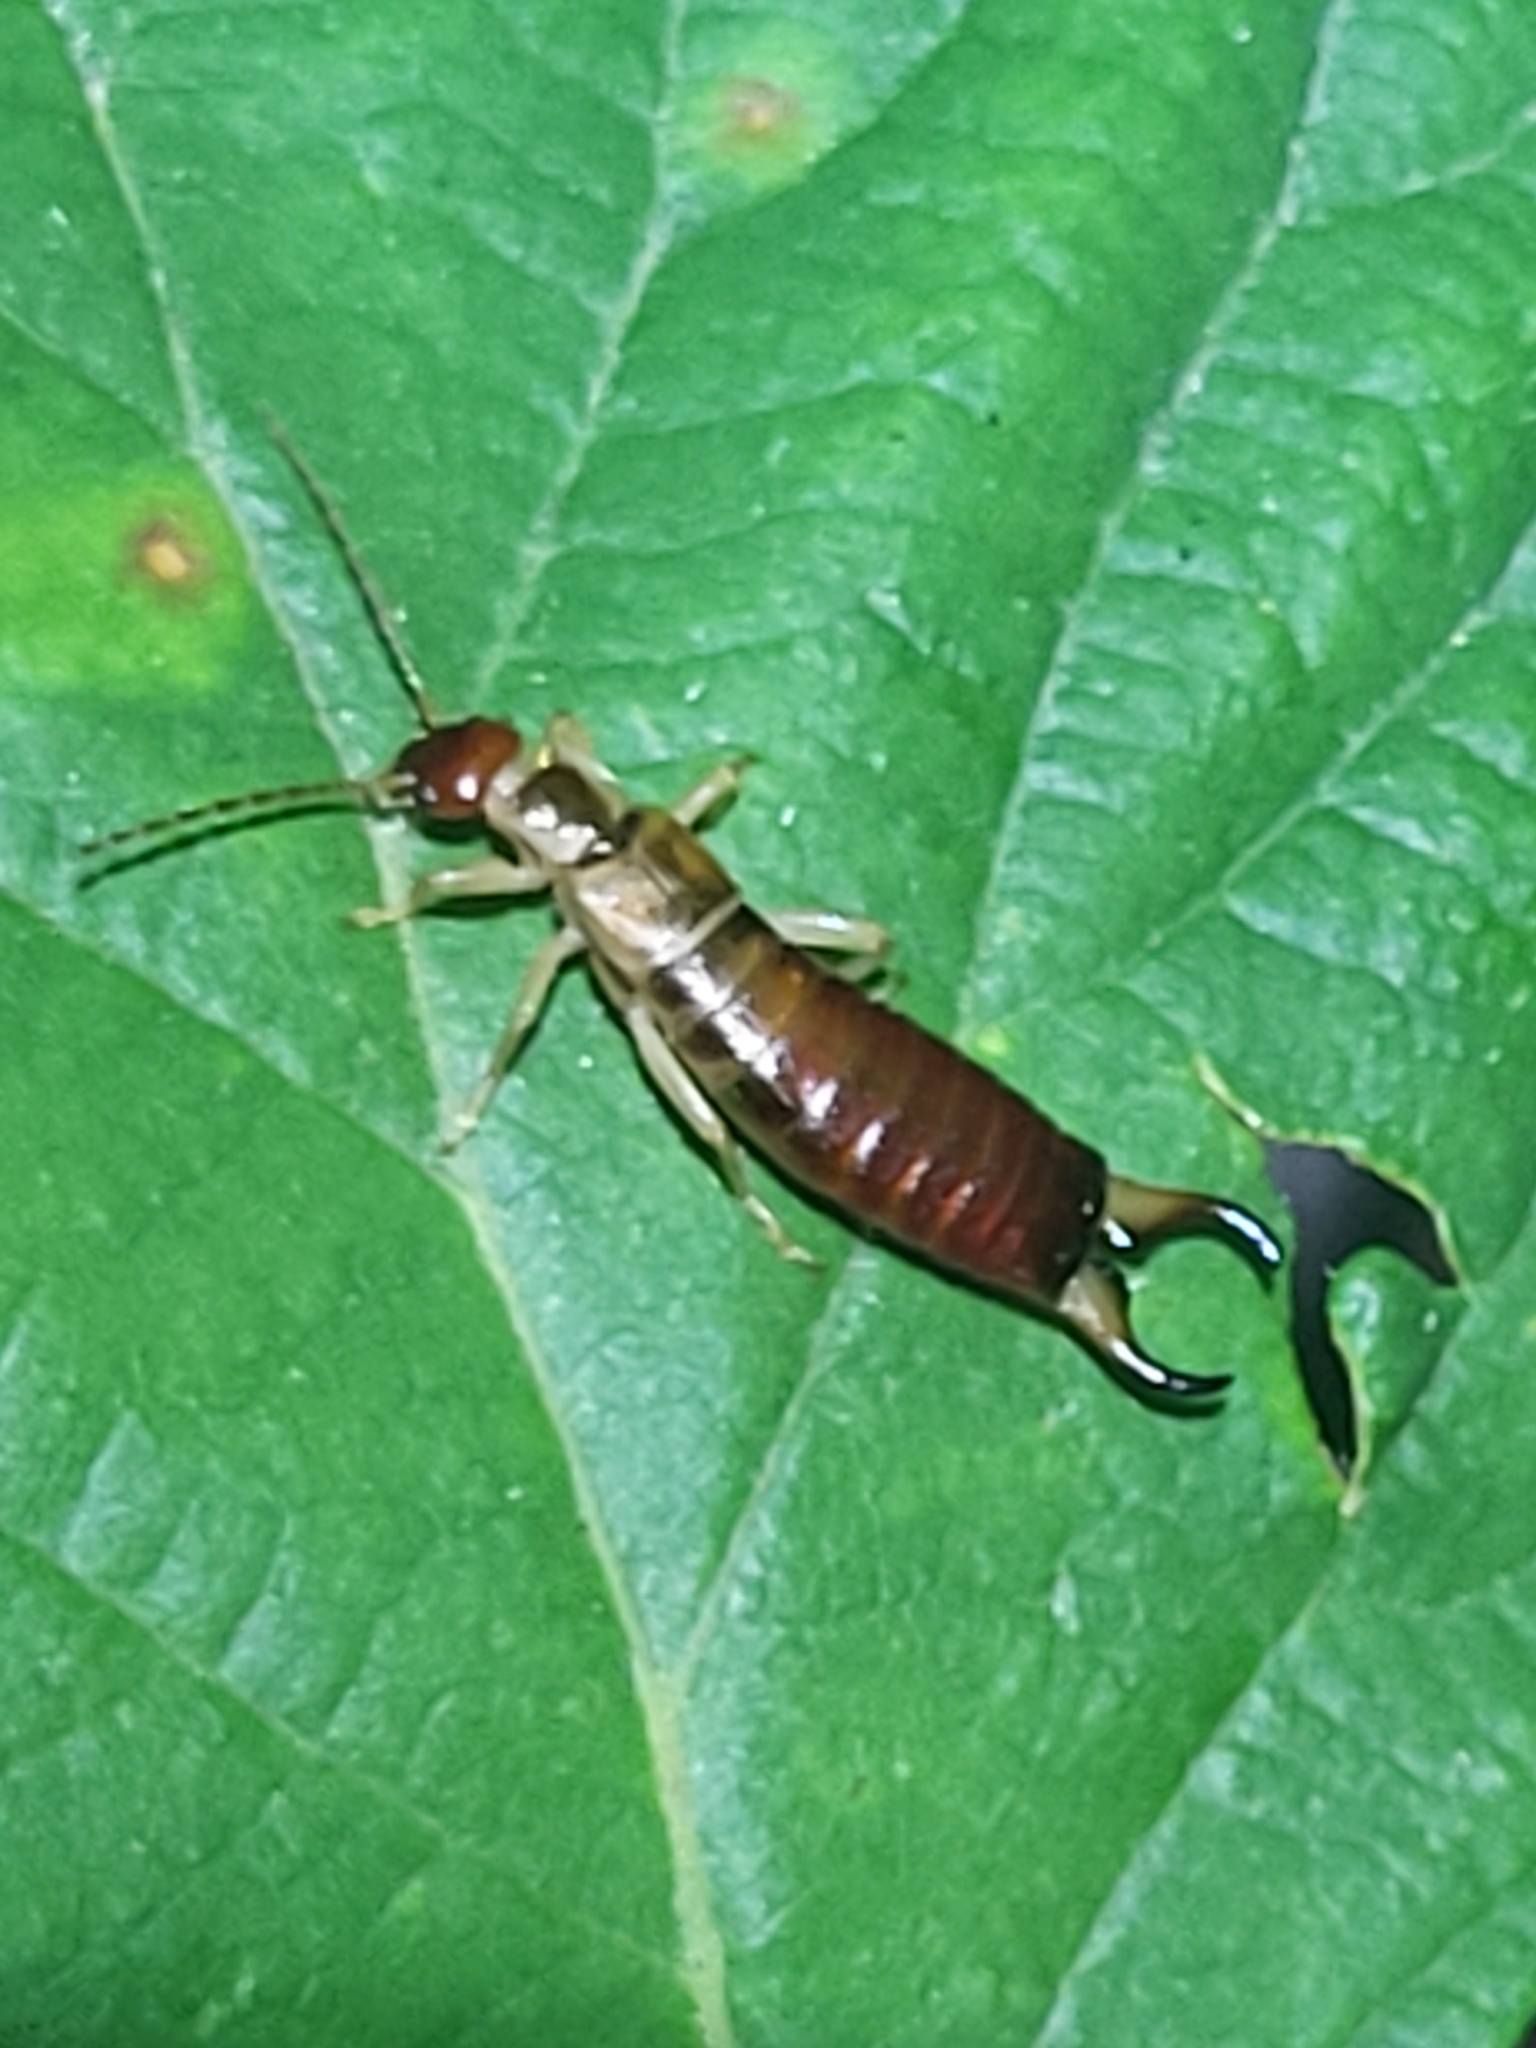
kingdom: Animalia
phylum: Arthropoda
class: Insecta
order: Dermaptera
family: Forficulidae
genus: Forficula
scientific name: Forficula decipiens
